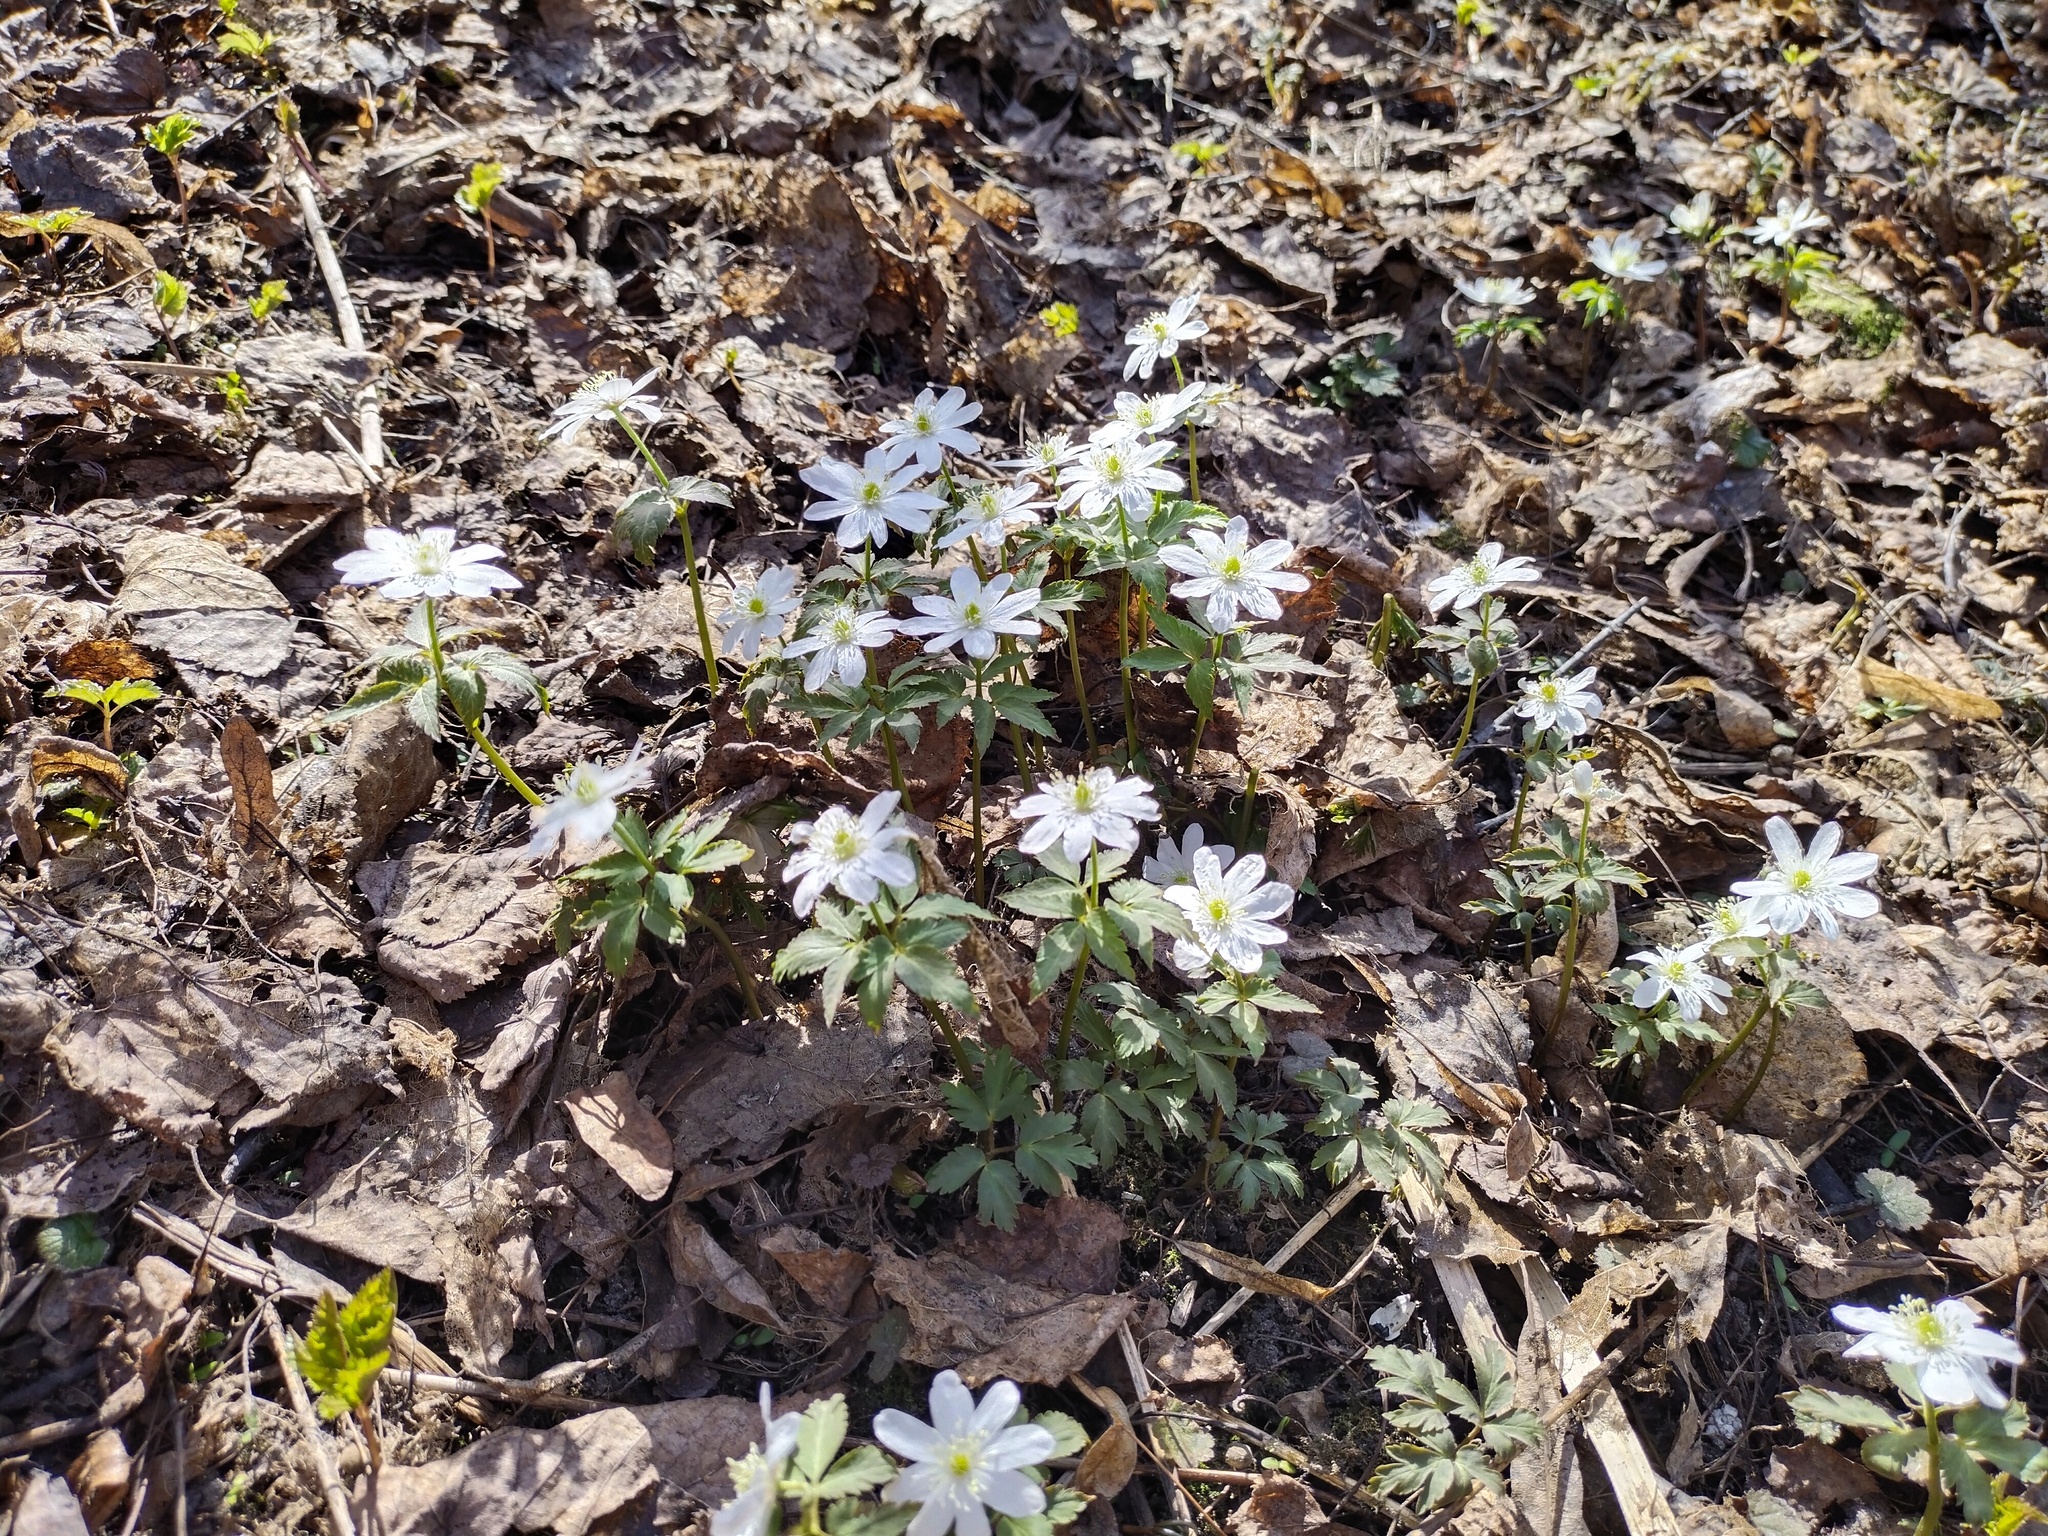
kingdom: Plantae
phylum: Tracheophyta
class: Magnoliopsida
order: Ranunculales
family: Ranunculaceae
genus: Anemone
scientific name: Anemone altaica
